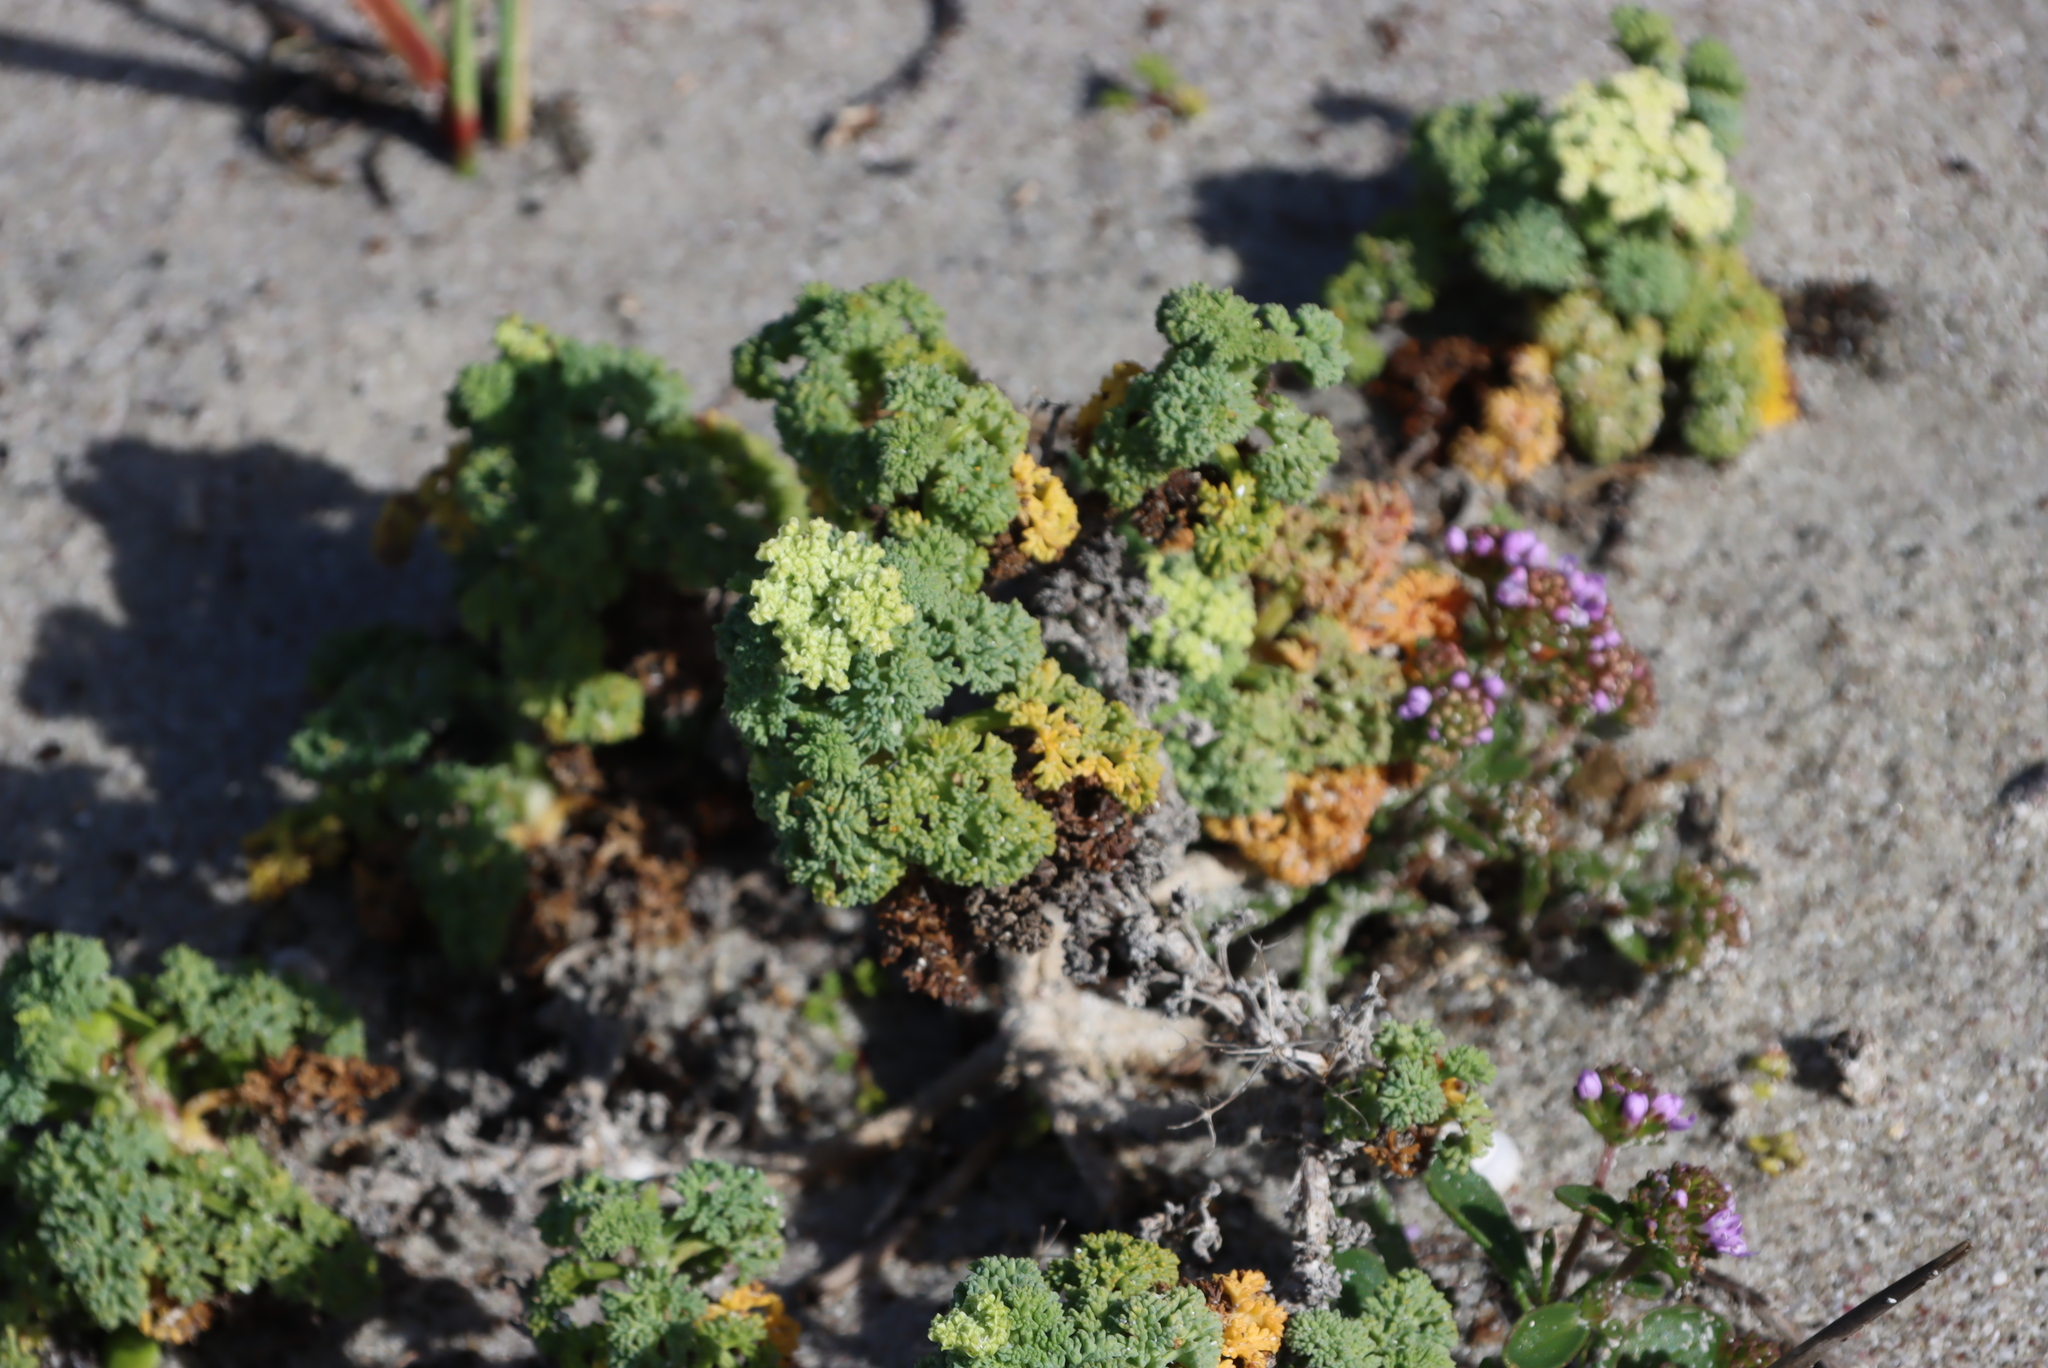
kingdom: Plantae
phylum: Tracheophyta
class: Magnoliopsida
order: Apiales
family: Apiaceae
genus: Dasispermum
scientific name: Dasispermum suffruticosum
